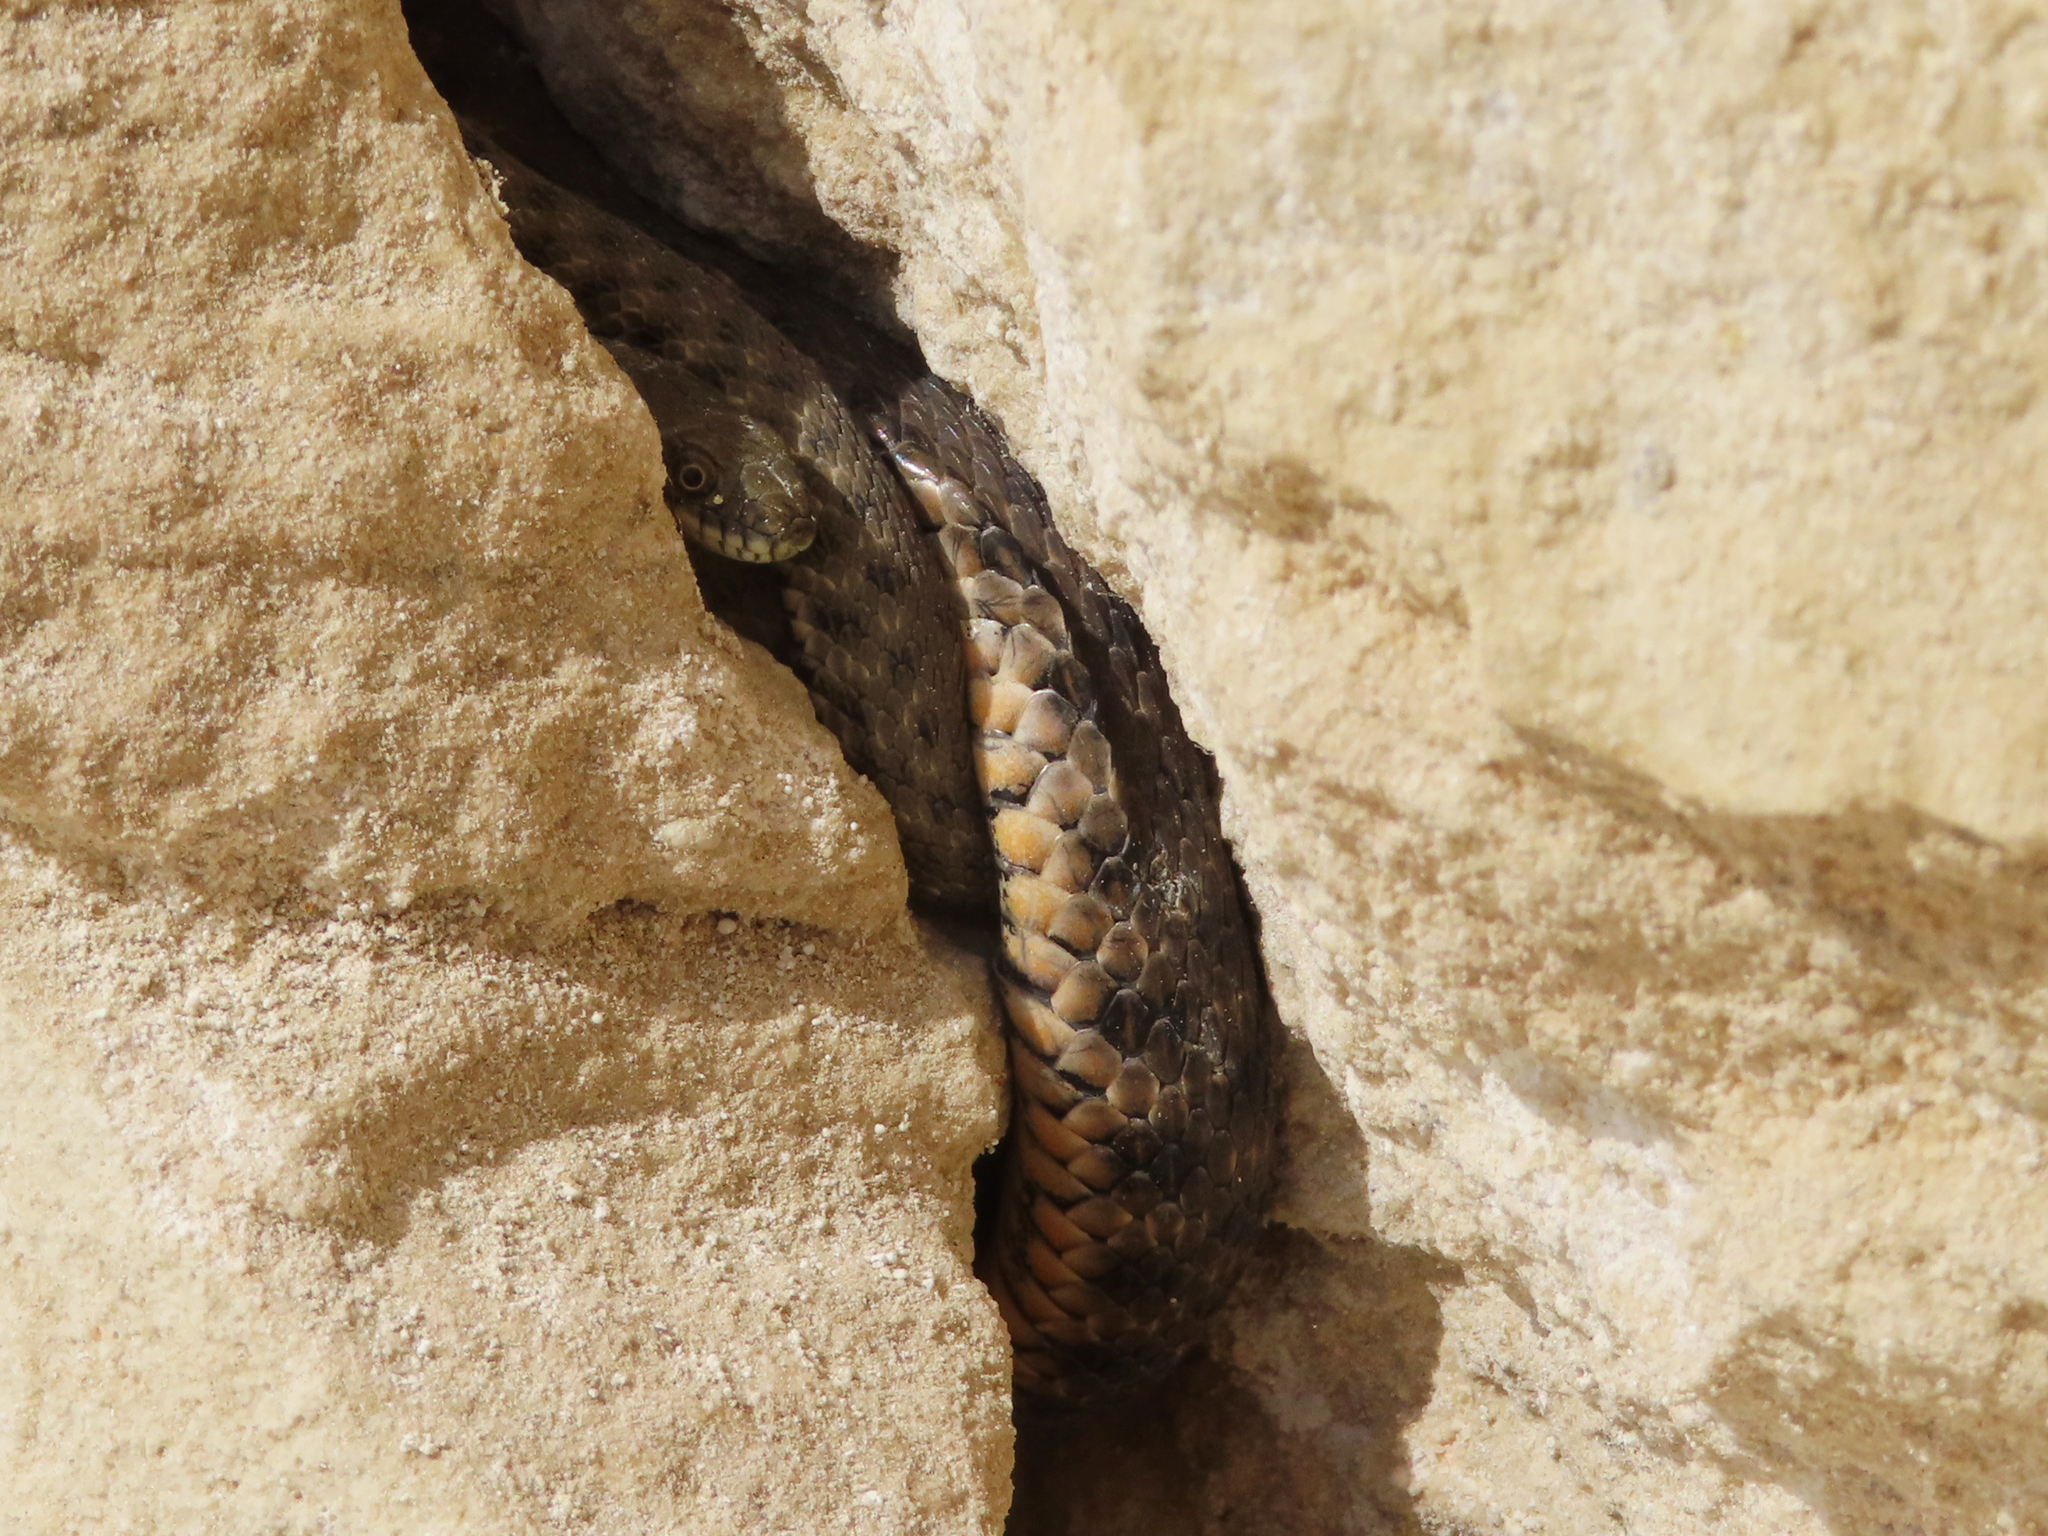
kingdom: Animalia
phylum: Chordata
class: Squamata
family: Colubridae
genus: Natrix
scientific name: Natrix tessellata
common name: Dice snake
